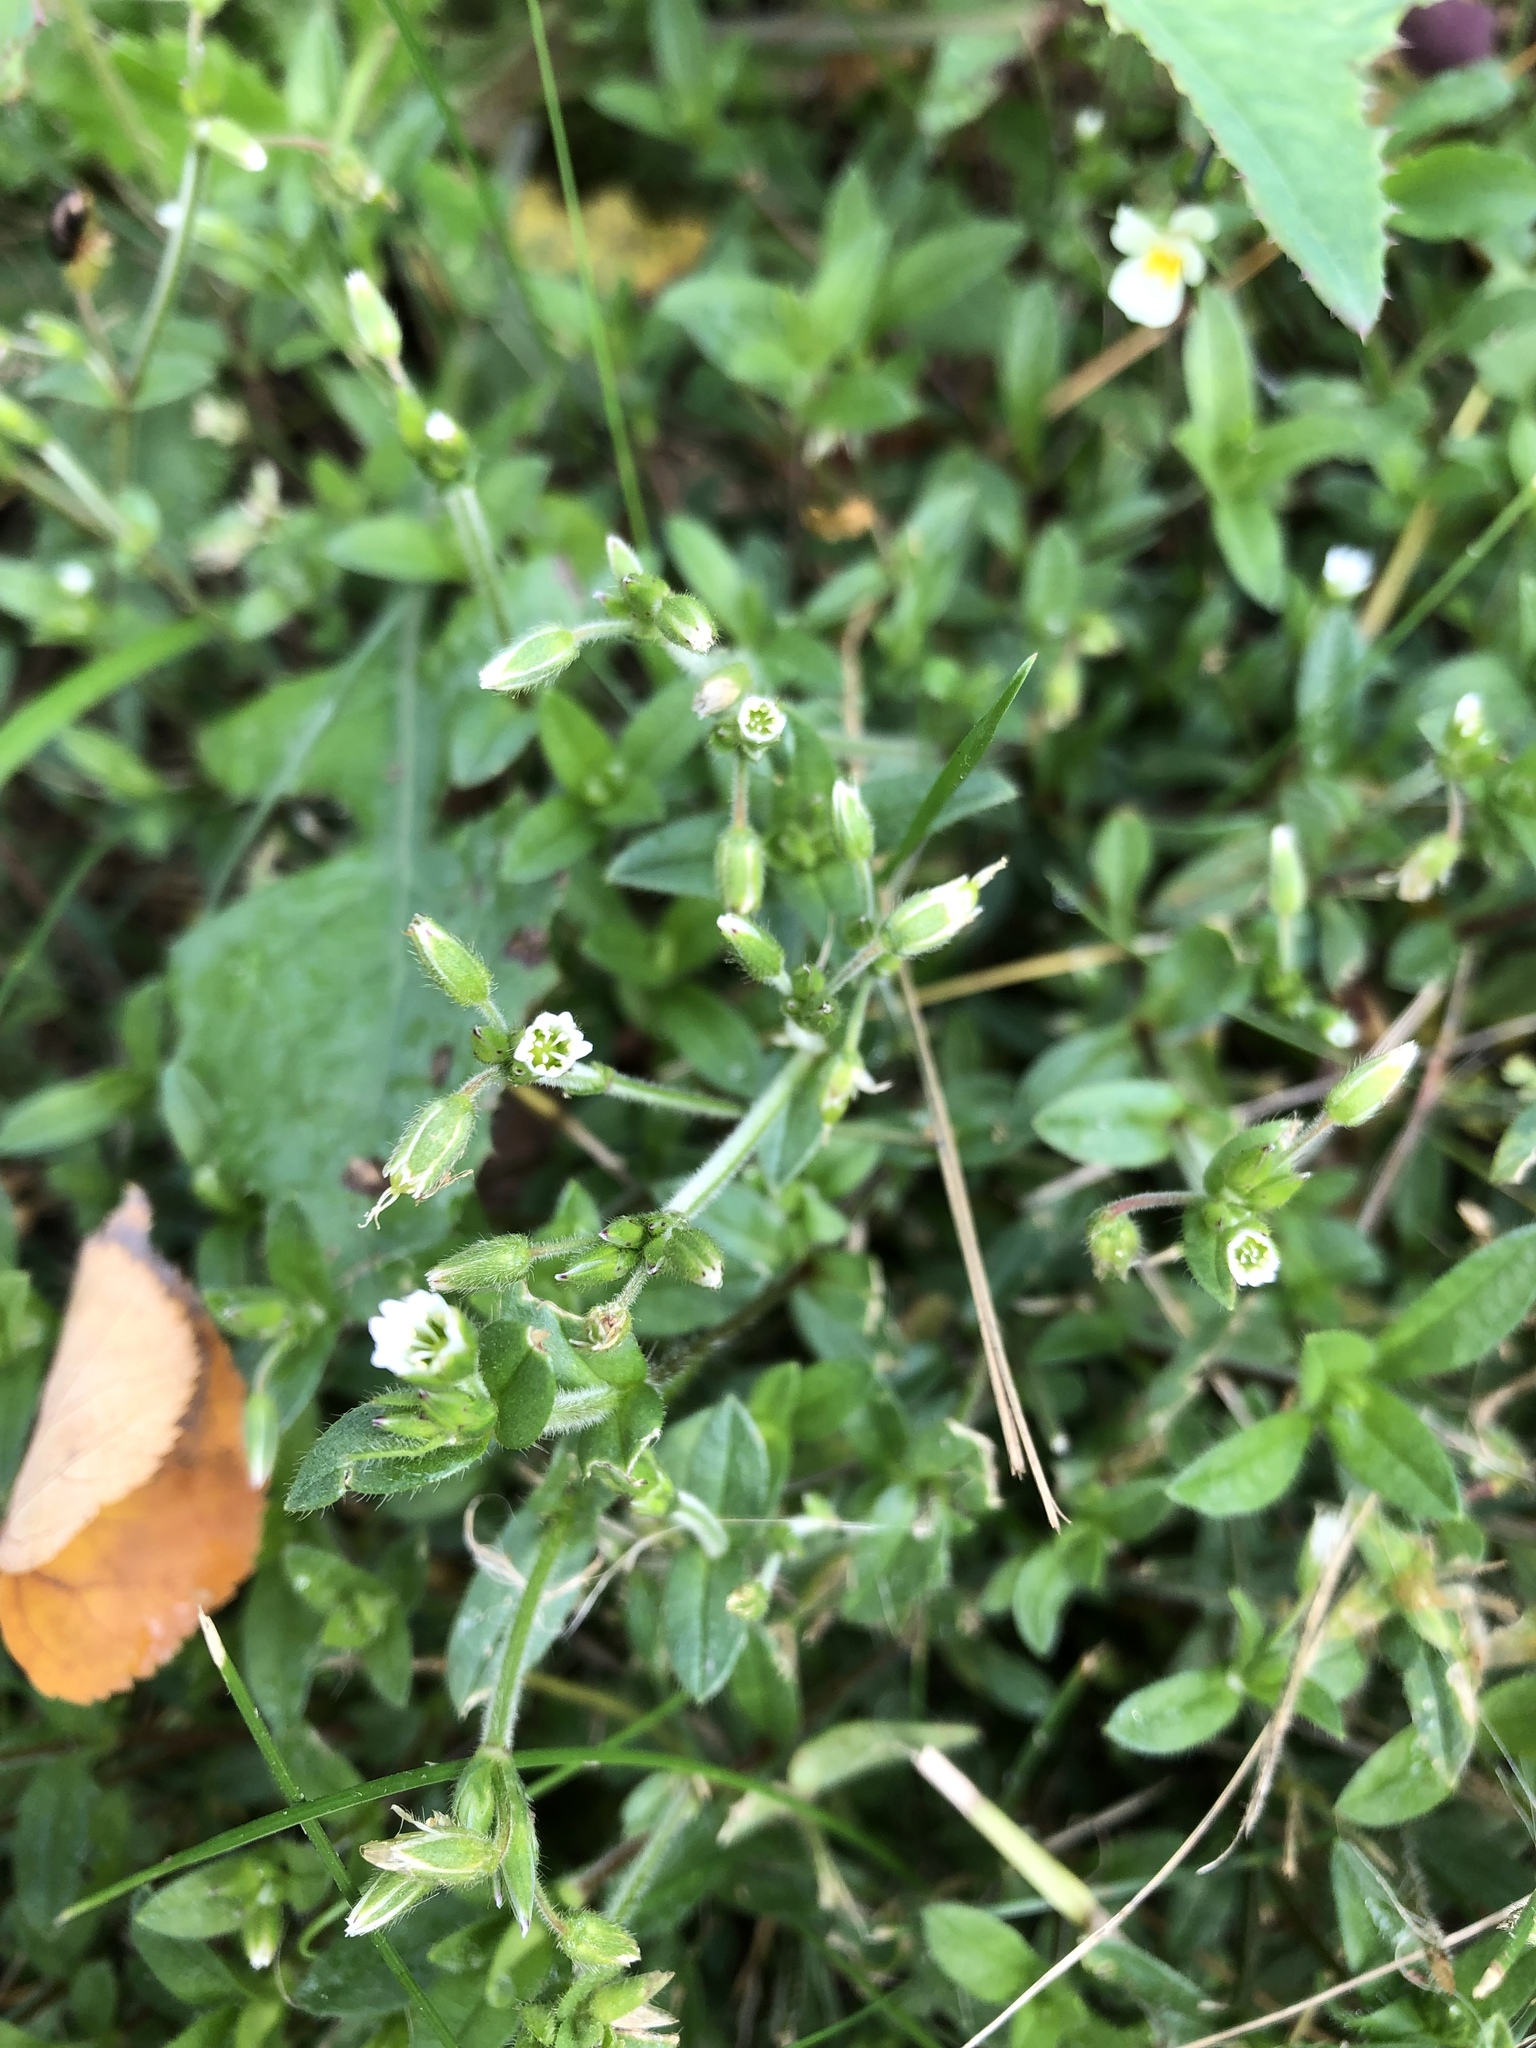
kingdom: Plantae
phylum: Tracheophyta
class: Magnoliopsida
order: Caryophyllales
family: Caryophyllaceae
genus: Cerastium
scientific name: Cerastium holosteoides
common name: Big chickweed
